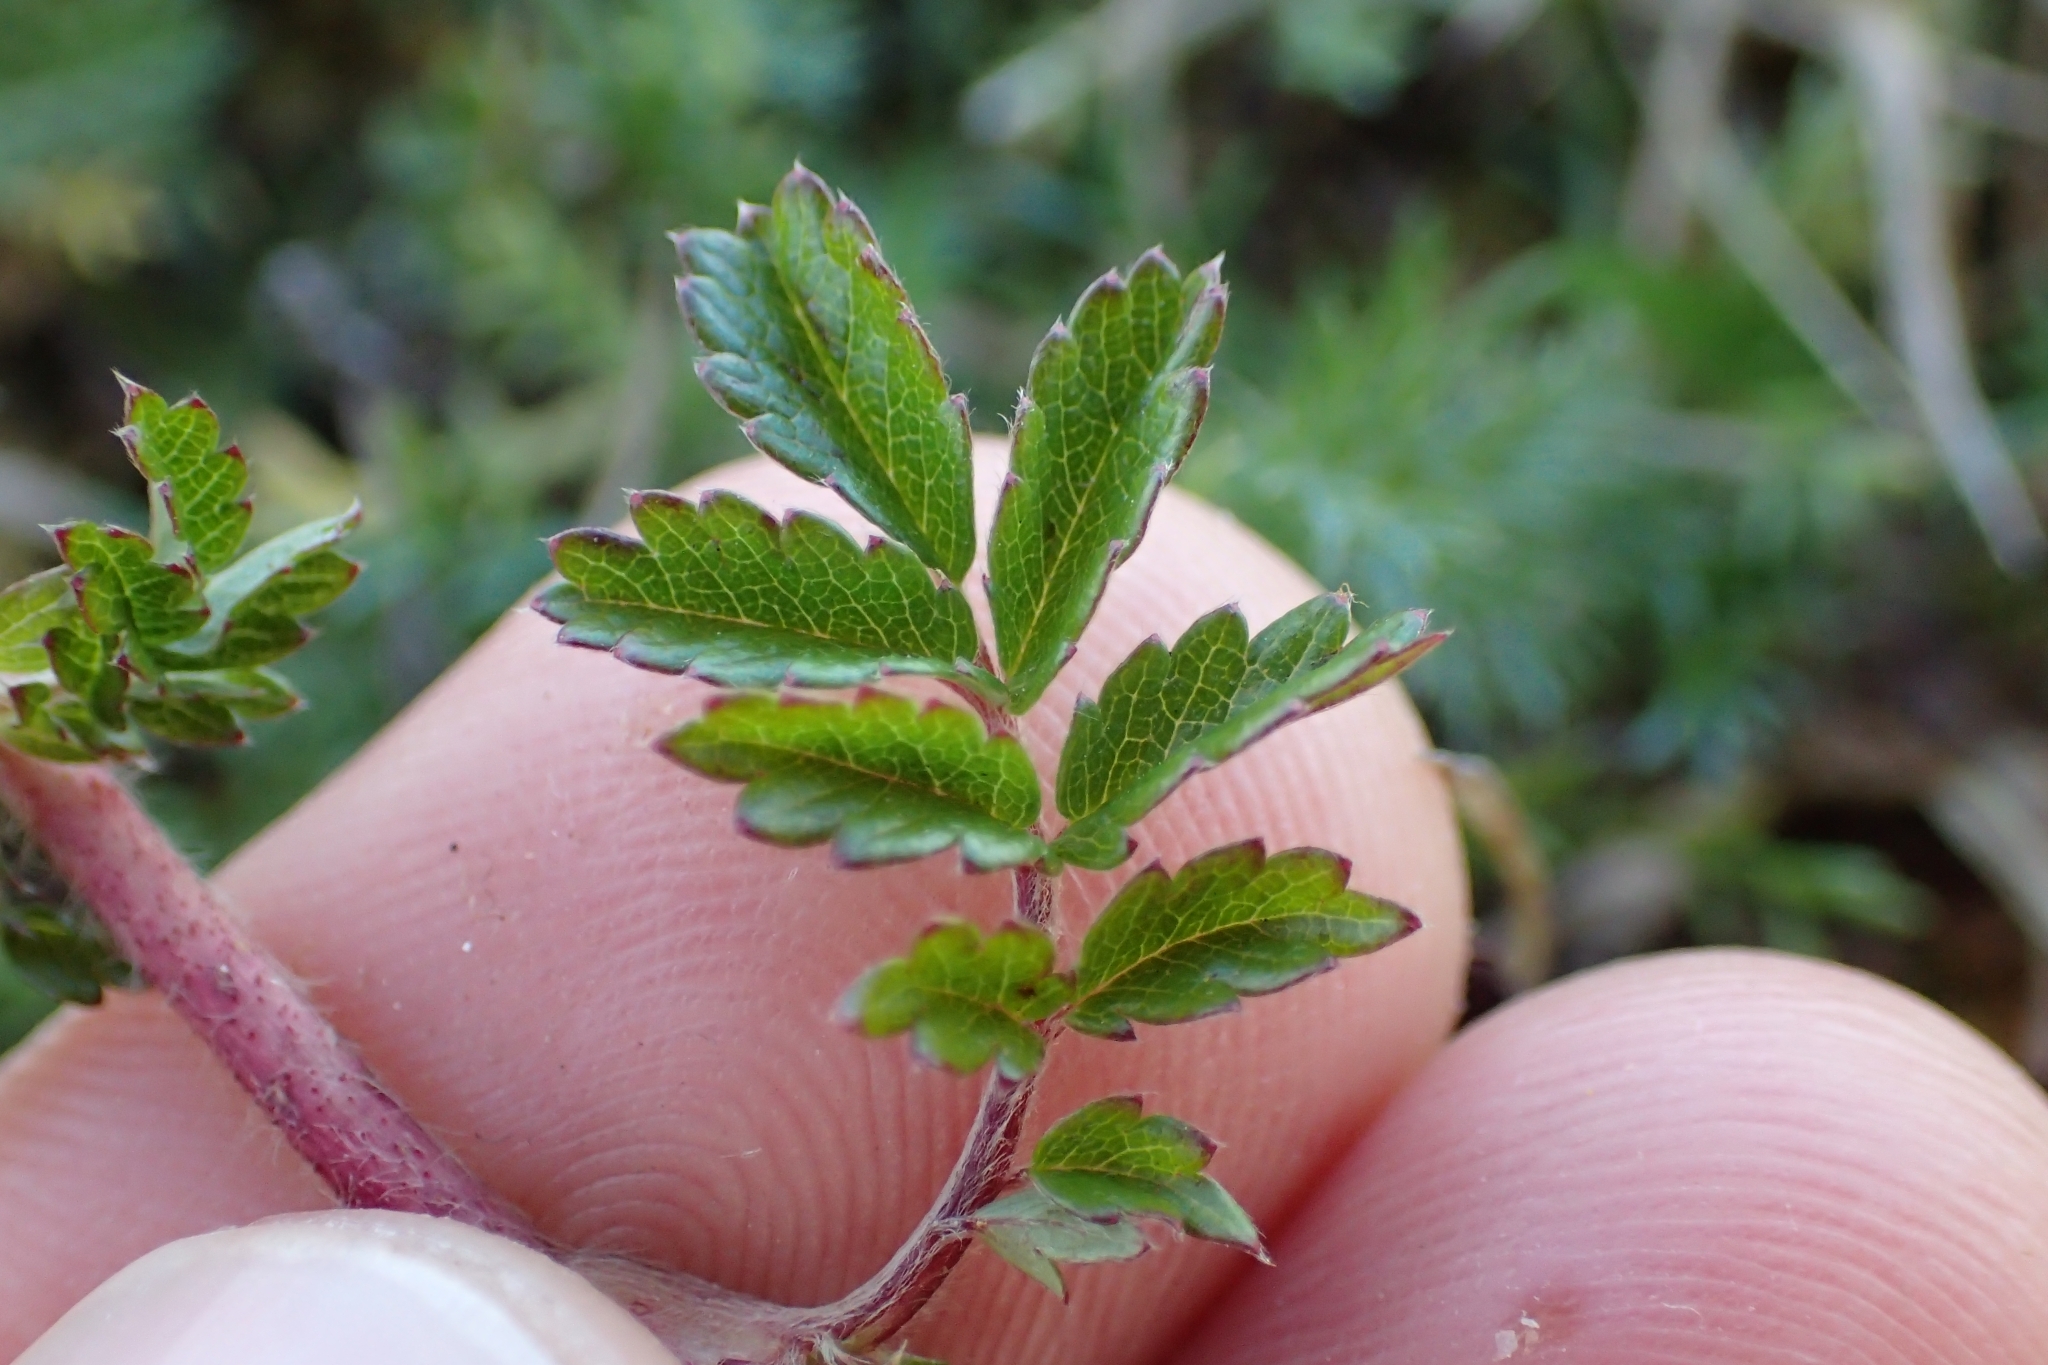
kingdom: Plantae
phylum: Tracheophyta
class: Magnoliopsida
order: Rosales
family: Rosaceae
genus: Acaena
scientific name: Acaena novae-zelandiae
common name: Pirri-pirri-bur
